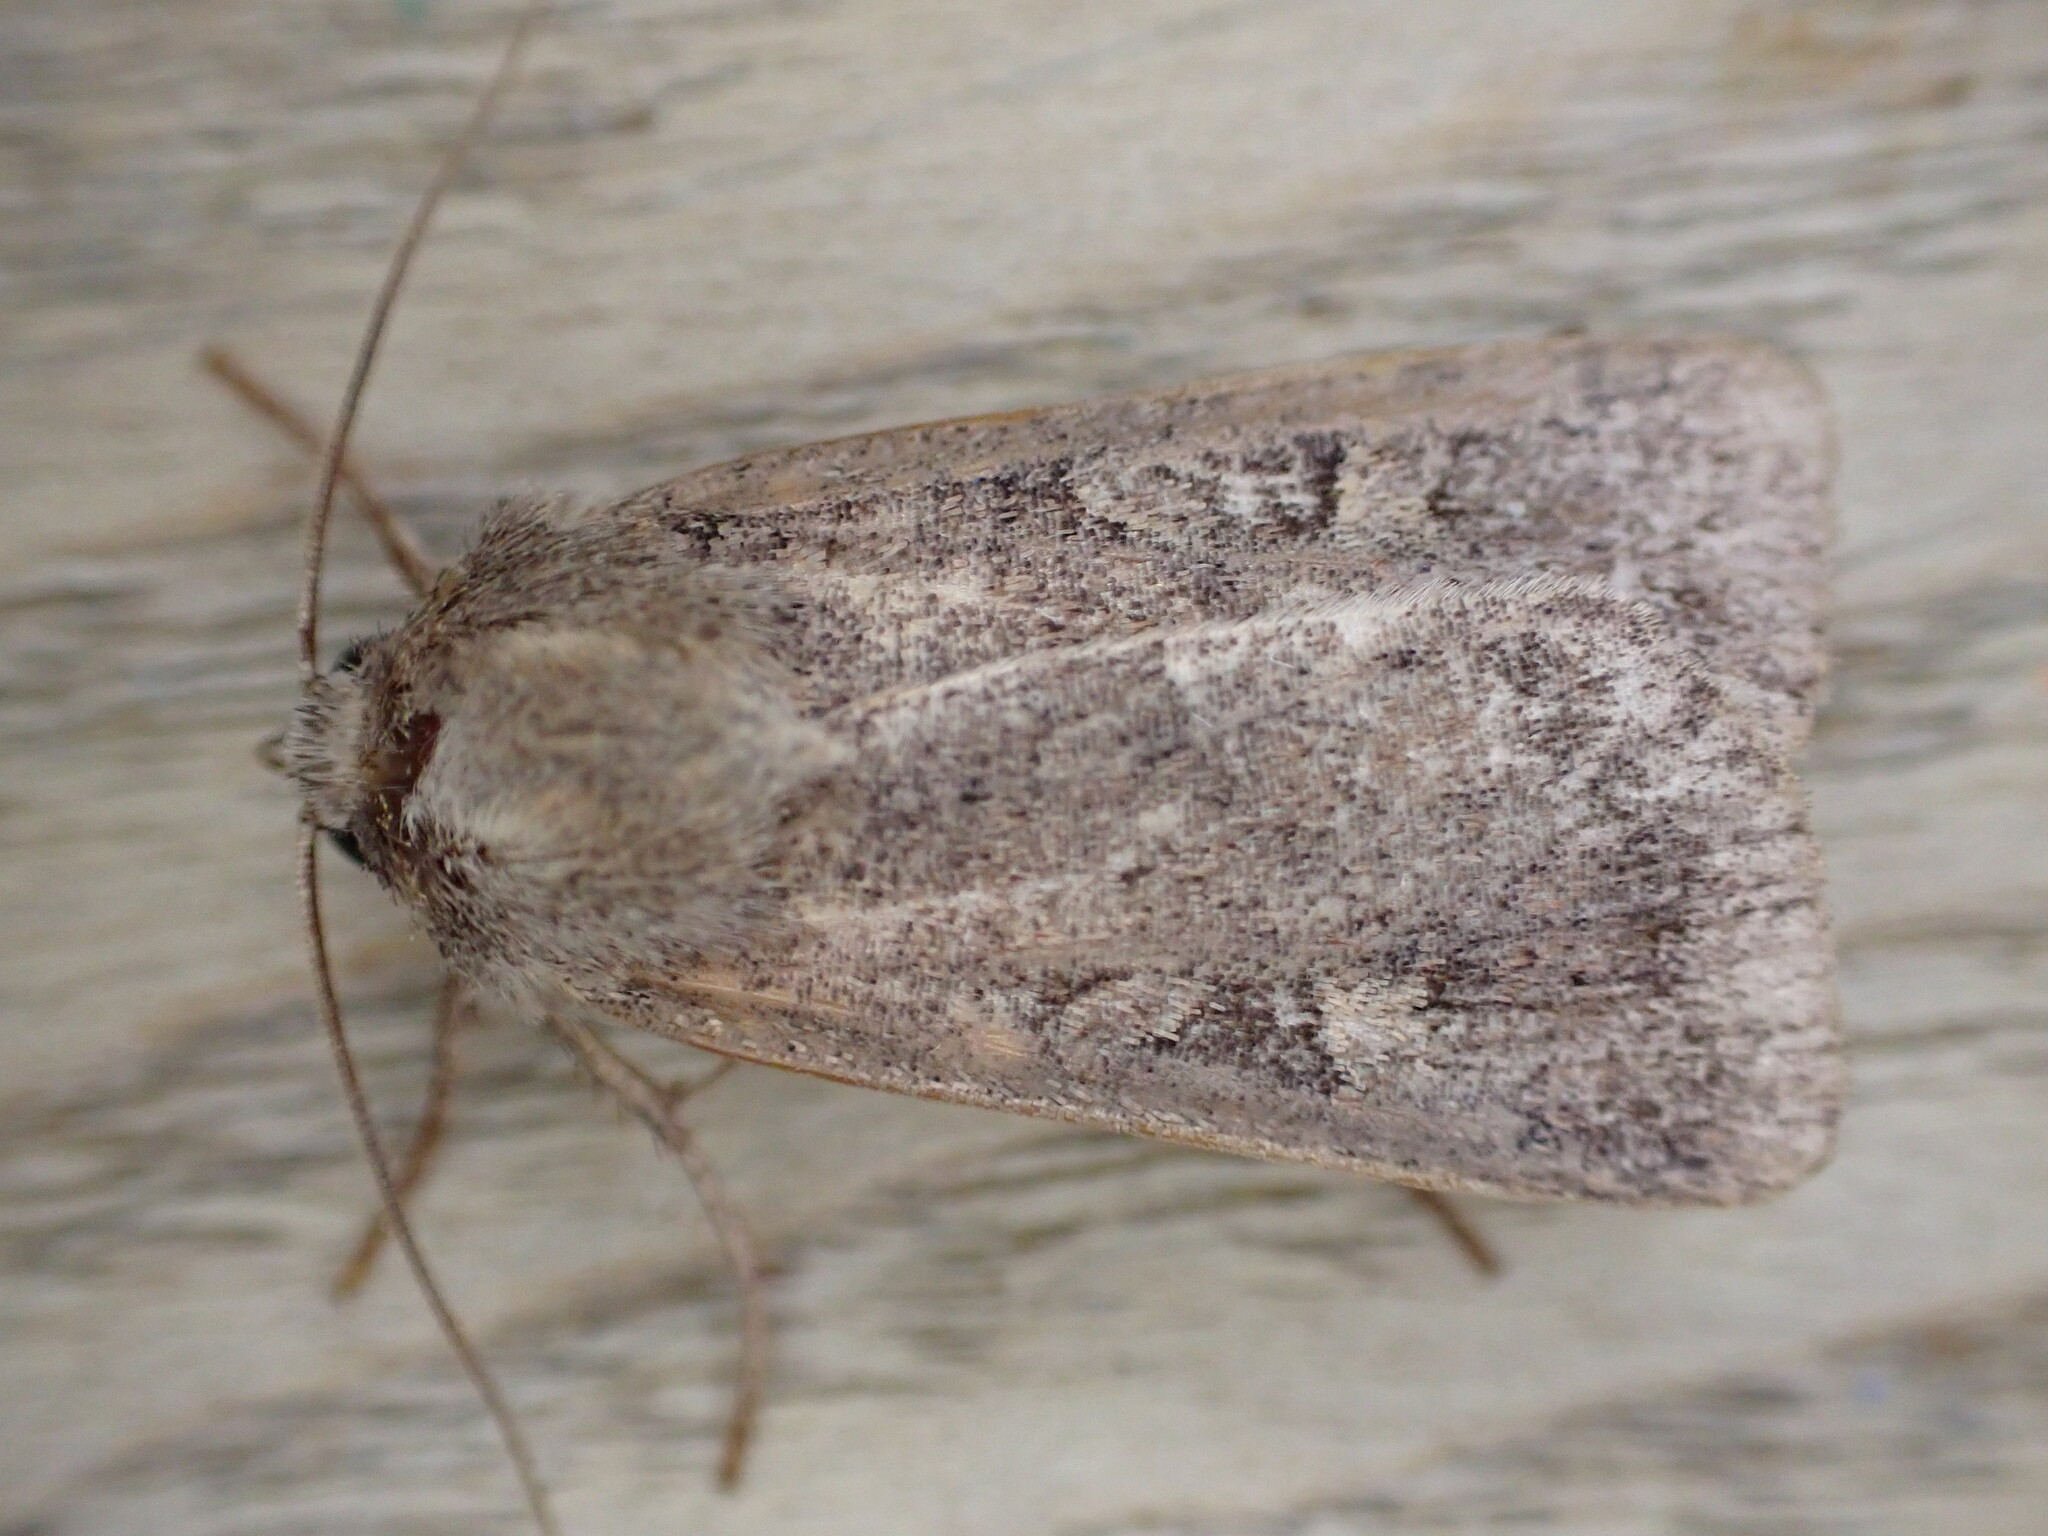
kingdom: Animalia
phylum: Arthropoda
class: Insecta
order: Lepidoptera
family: Noctuidae
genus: Xestia
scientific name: Xestia xanthographa
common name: Square-spot rustic
